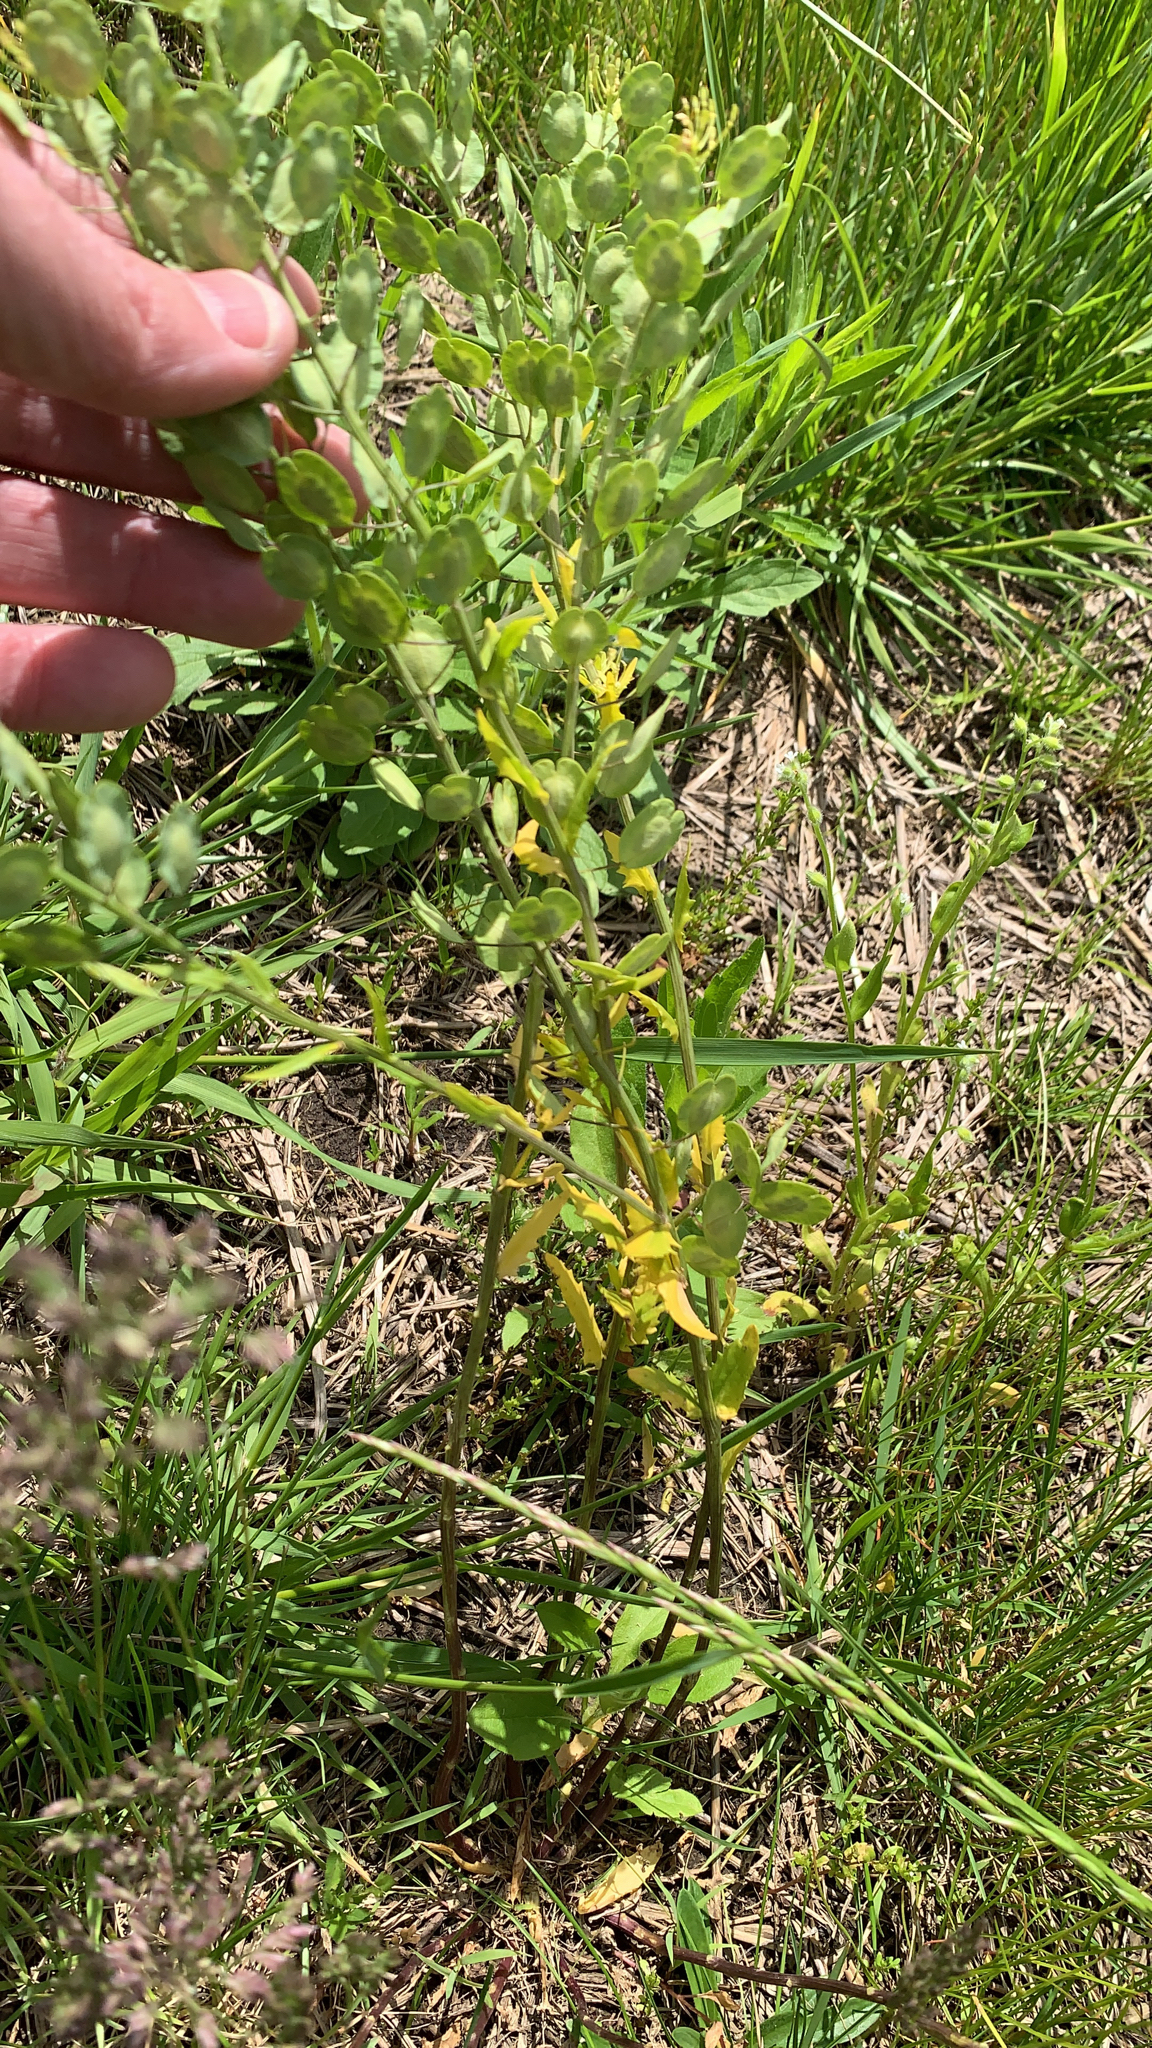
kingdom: Plantae
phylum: Tracheophyta
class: Magnoliopsida
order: Brassicales
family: Brassicaceae
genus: Thlaspi
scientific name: Thlaspi arvense
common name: Field pennycress
